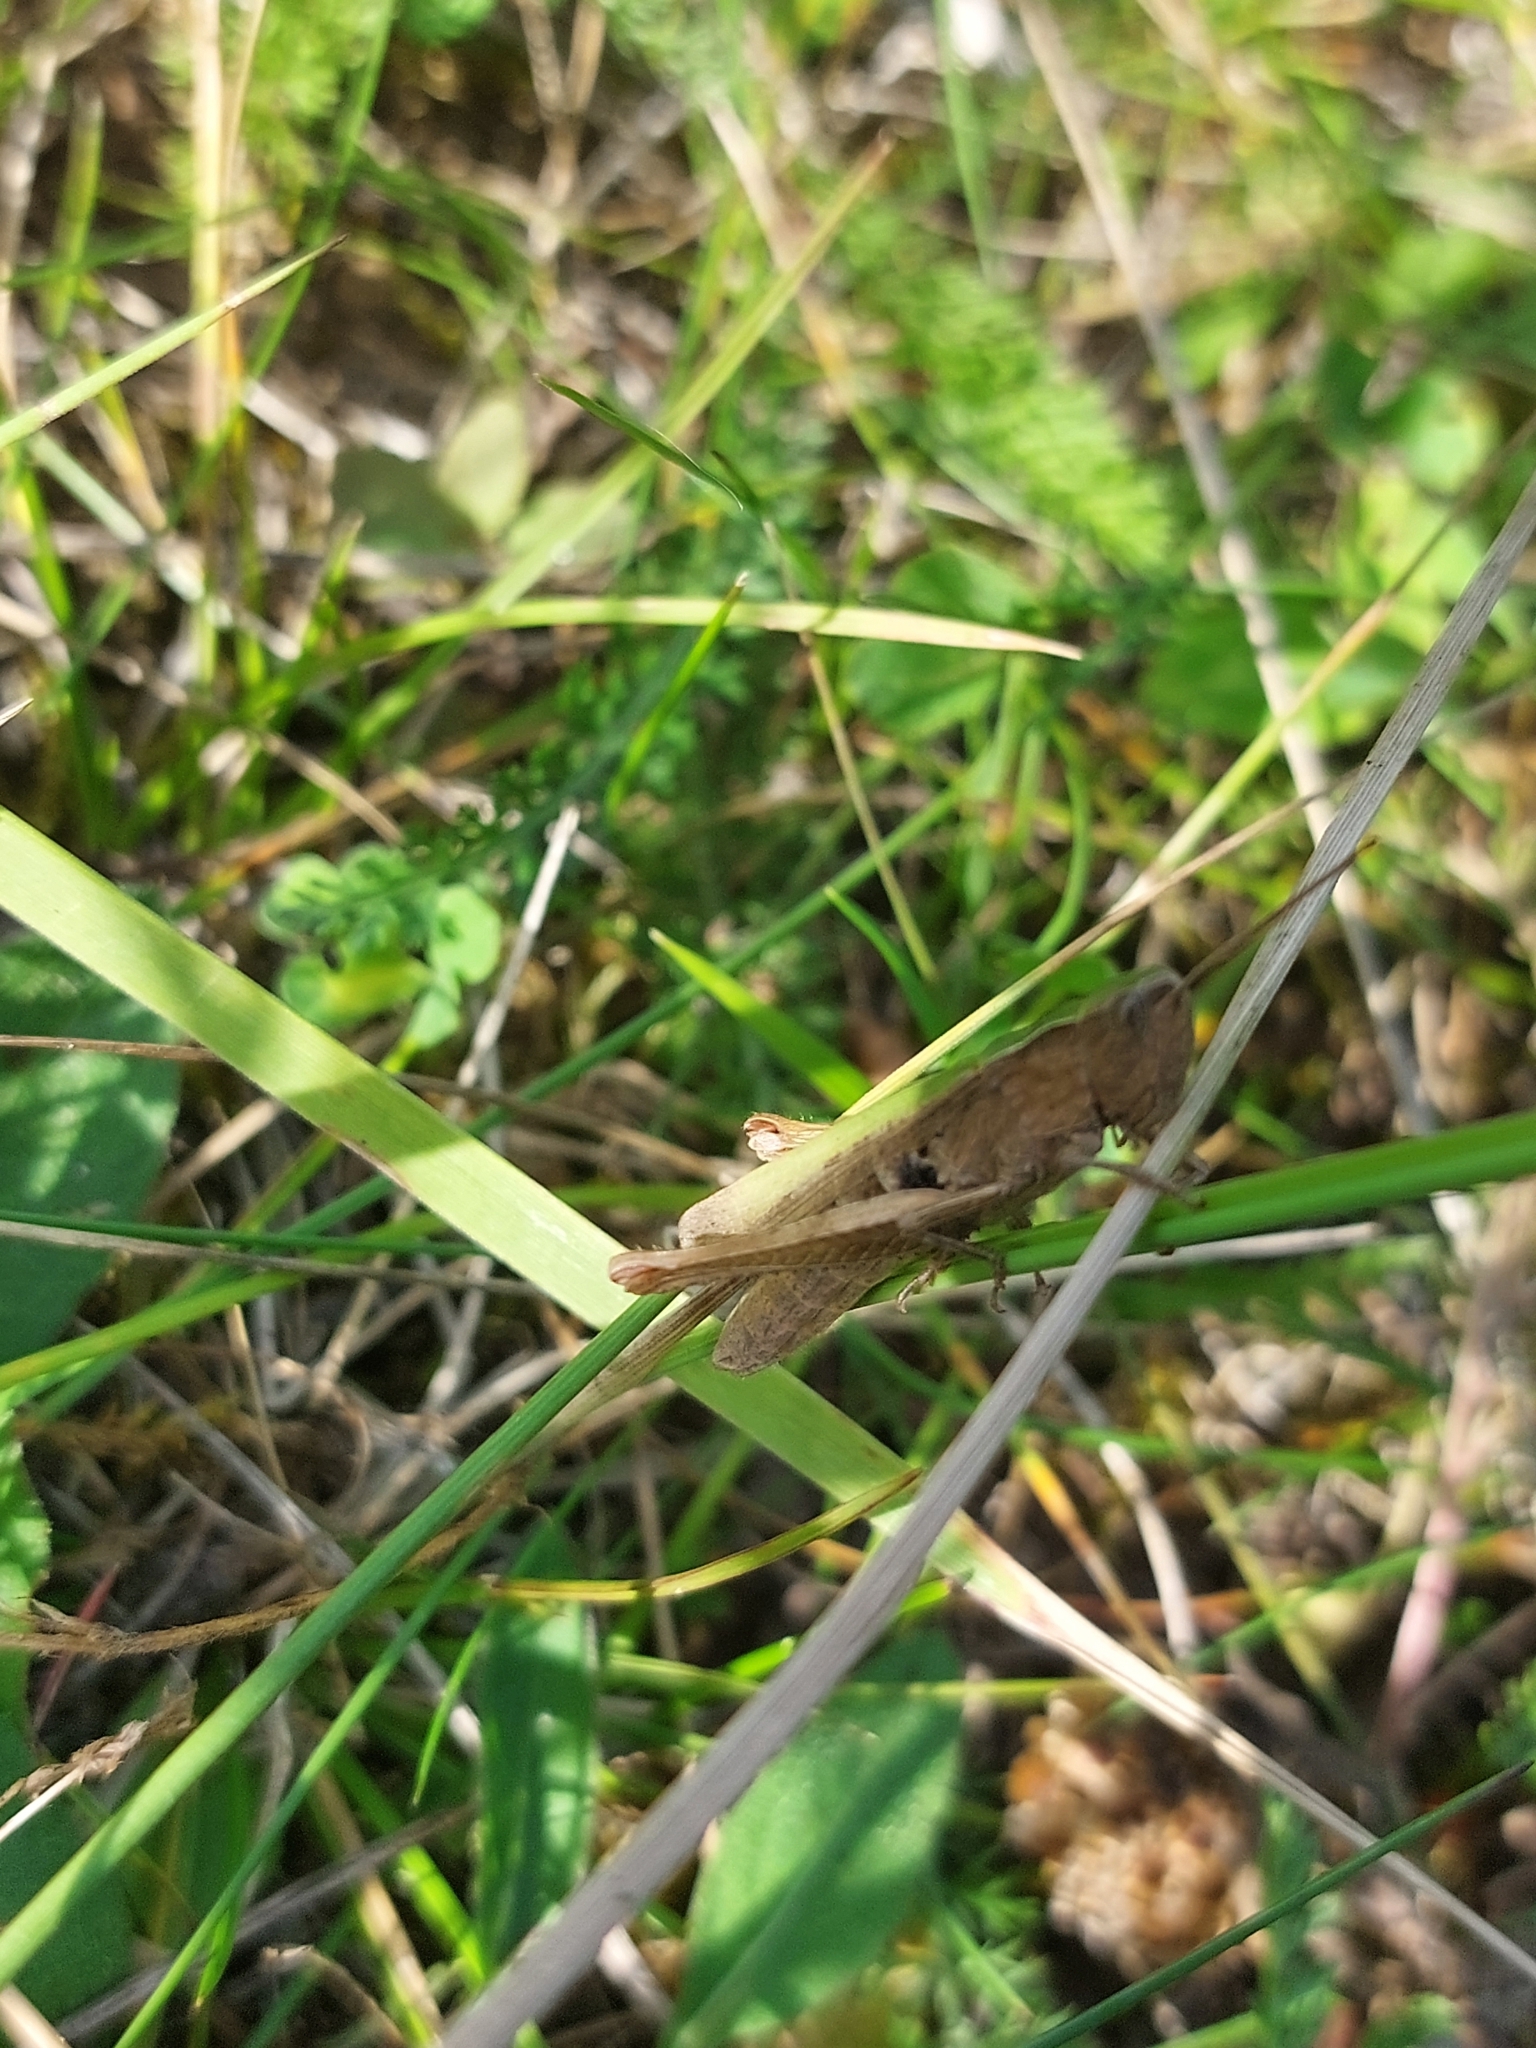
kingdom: Animalia
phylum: Arthropoda
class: Insecta
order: Orthoptera
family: Acrididae
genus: Chorthippus
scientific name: Chorthippus dorsatus
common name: Steppe grasshopper
